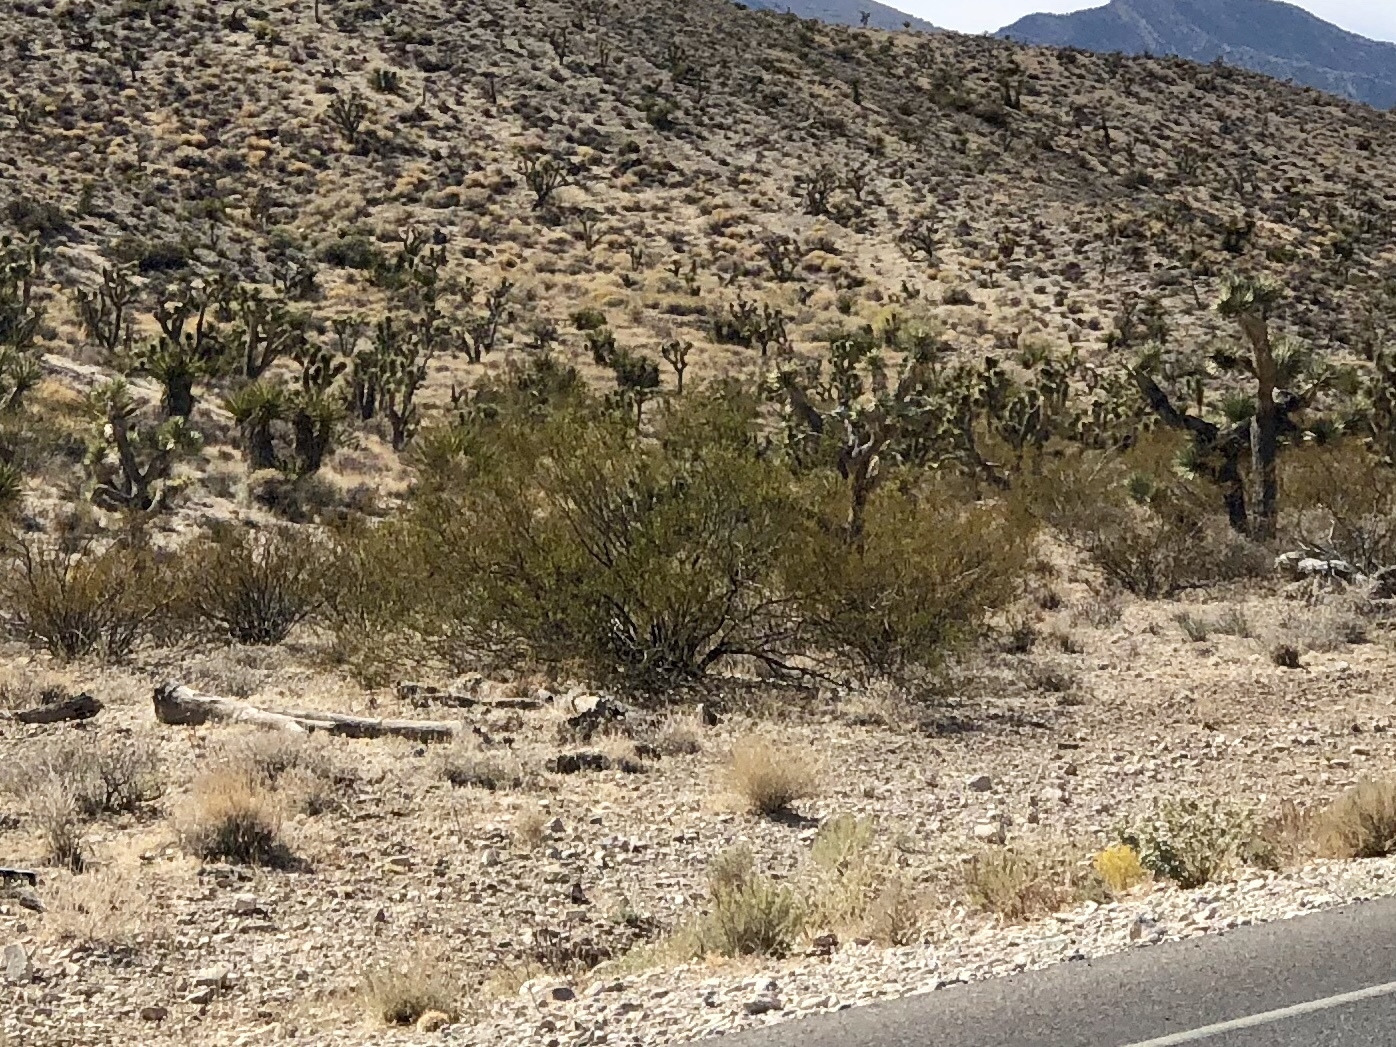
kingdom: Plantae
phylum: Tracheophyta
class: Magnoliopsida
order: Zygophyllales
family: Zygophyllaceae
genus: Larrea
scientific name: Larrea tridentata
